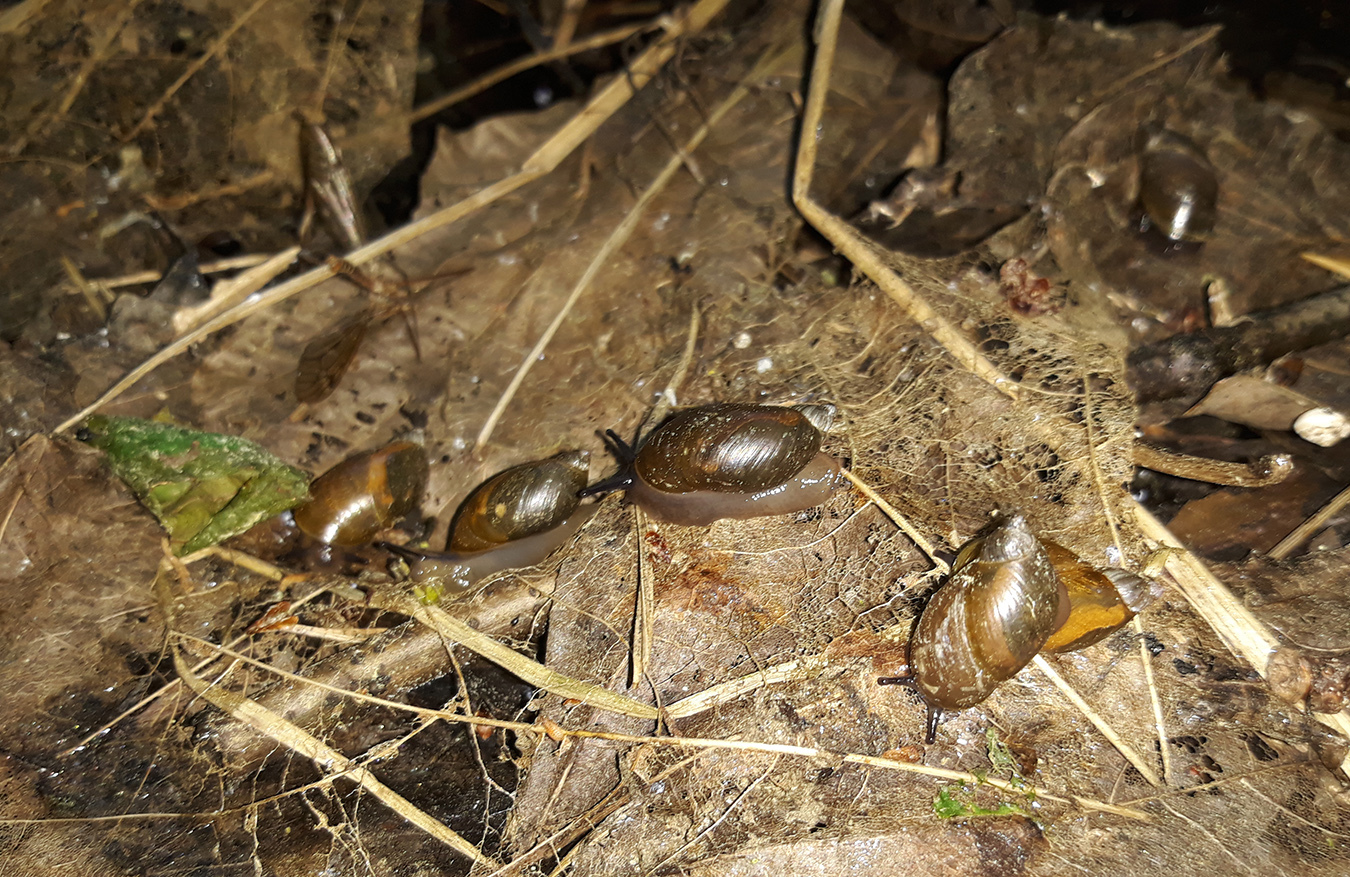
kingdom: Animalia
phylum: Mollusca
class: Gastropoda
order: Stylommatophora
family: Succineidae
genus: Succinea
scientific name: Succinea putris
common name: European ambersnail
